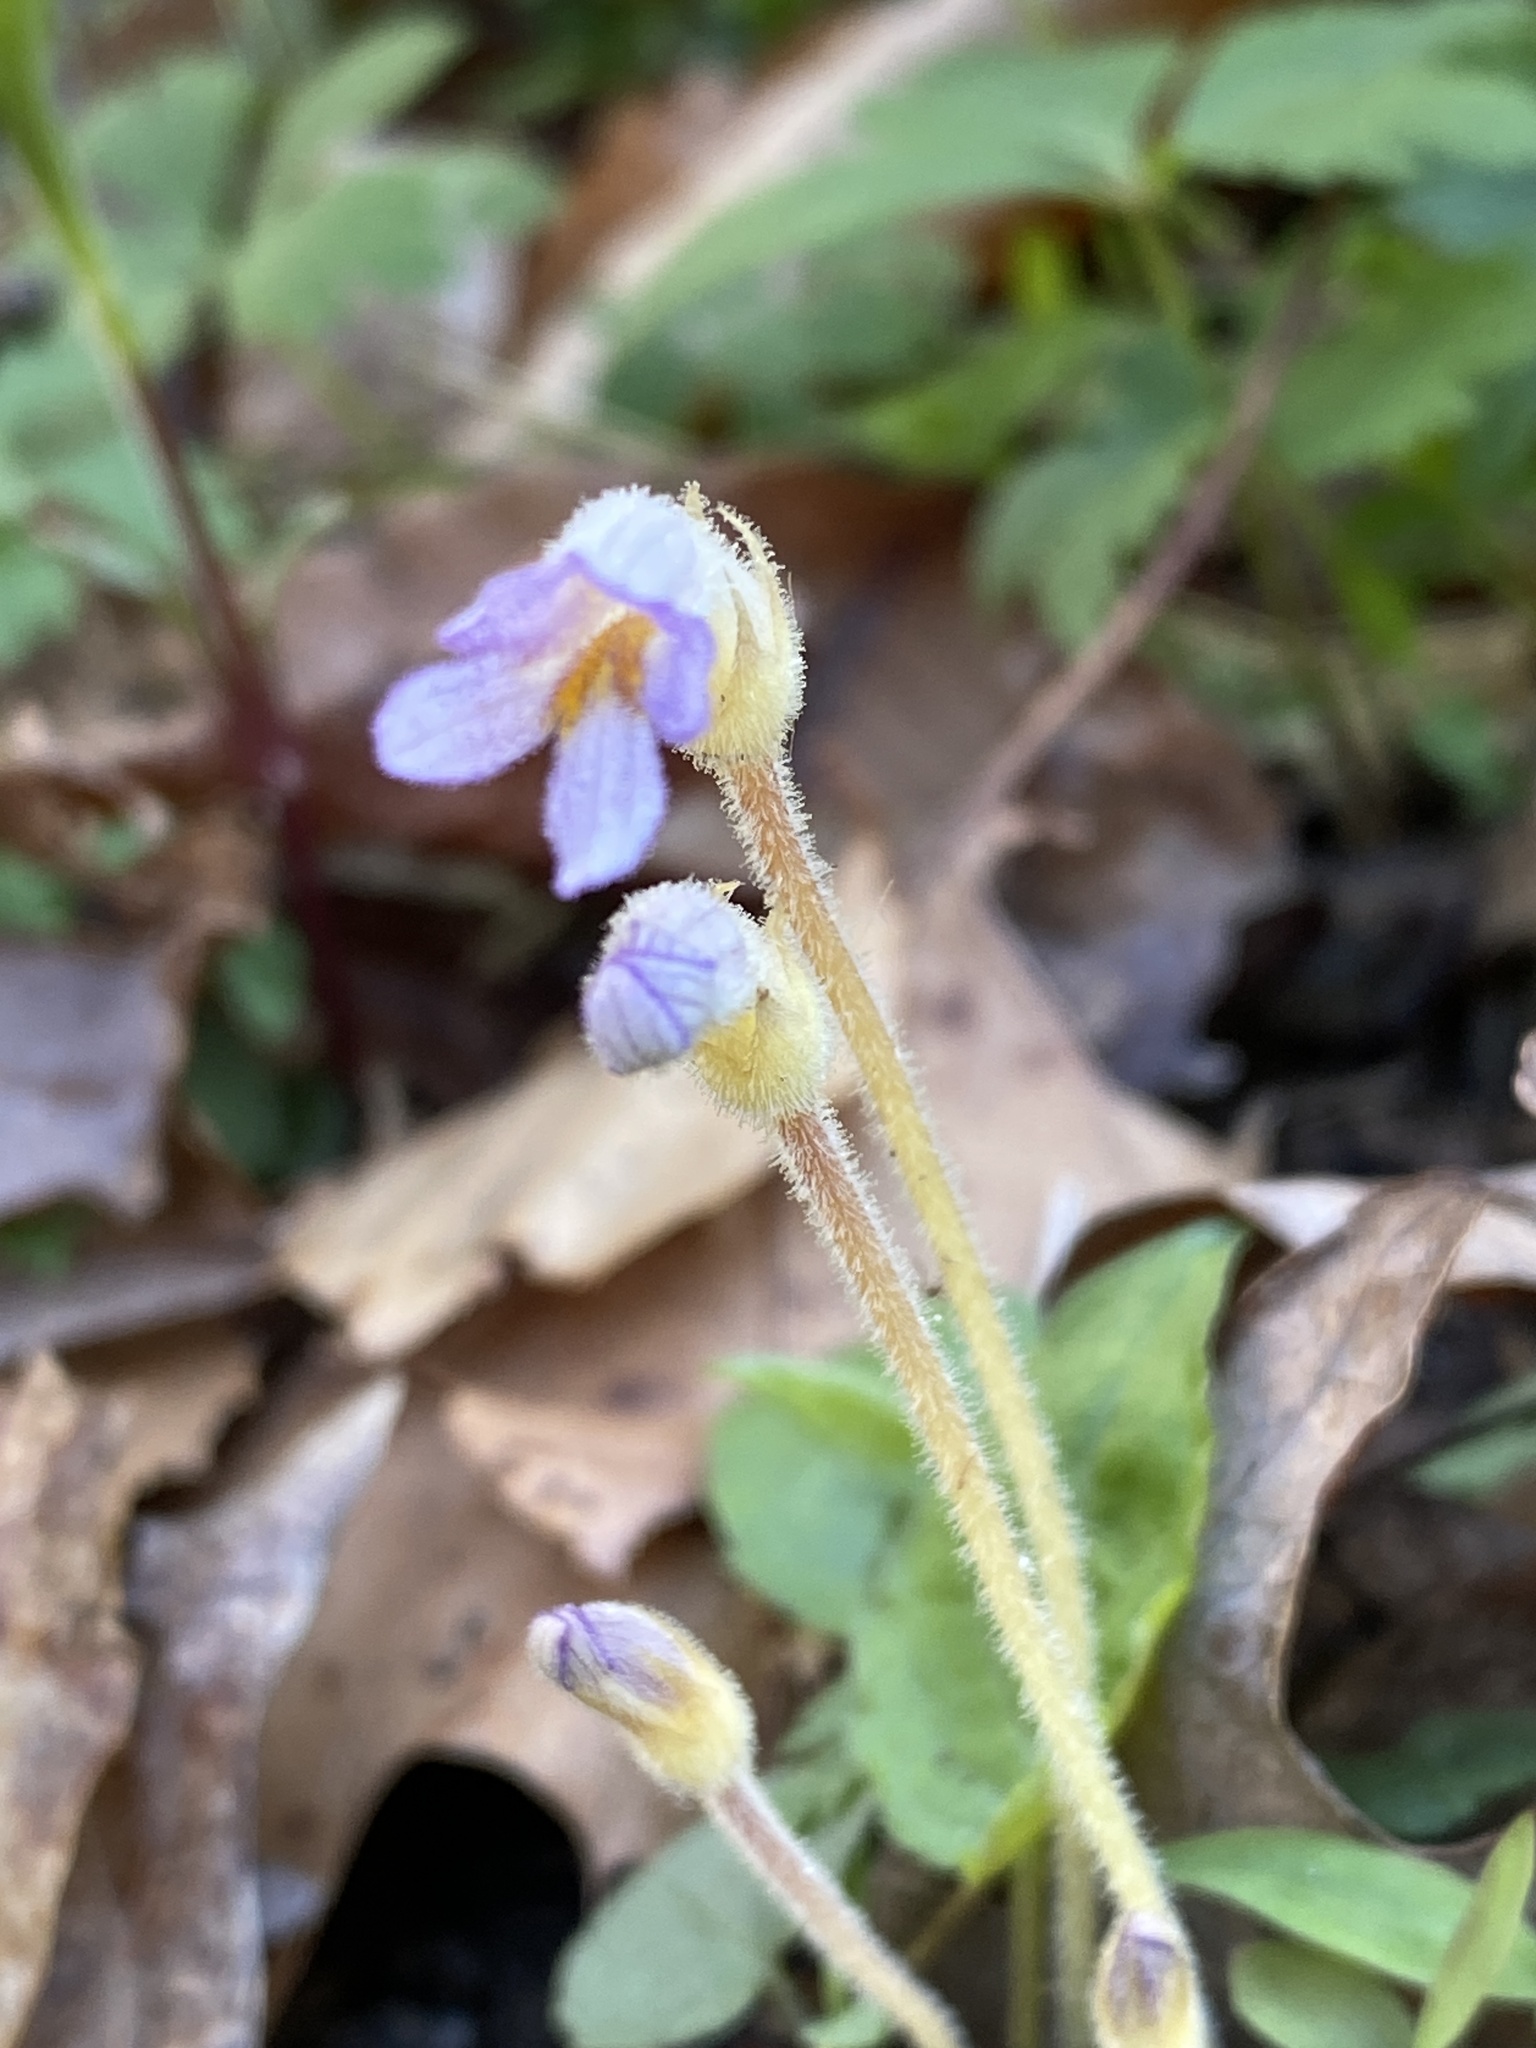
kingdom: Plantae
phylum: Tracheophyta
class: Magnoliopsida
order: Lamiales
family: Orobanchaceae
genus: Aphyllon
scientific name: Aphyllon uniflorum
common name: One-flowered broomrape
